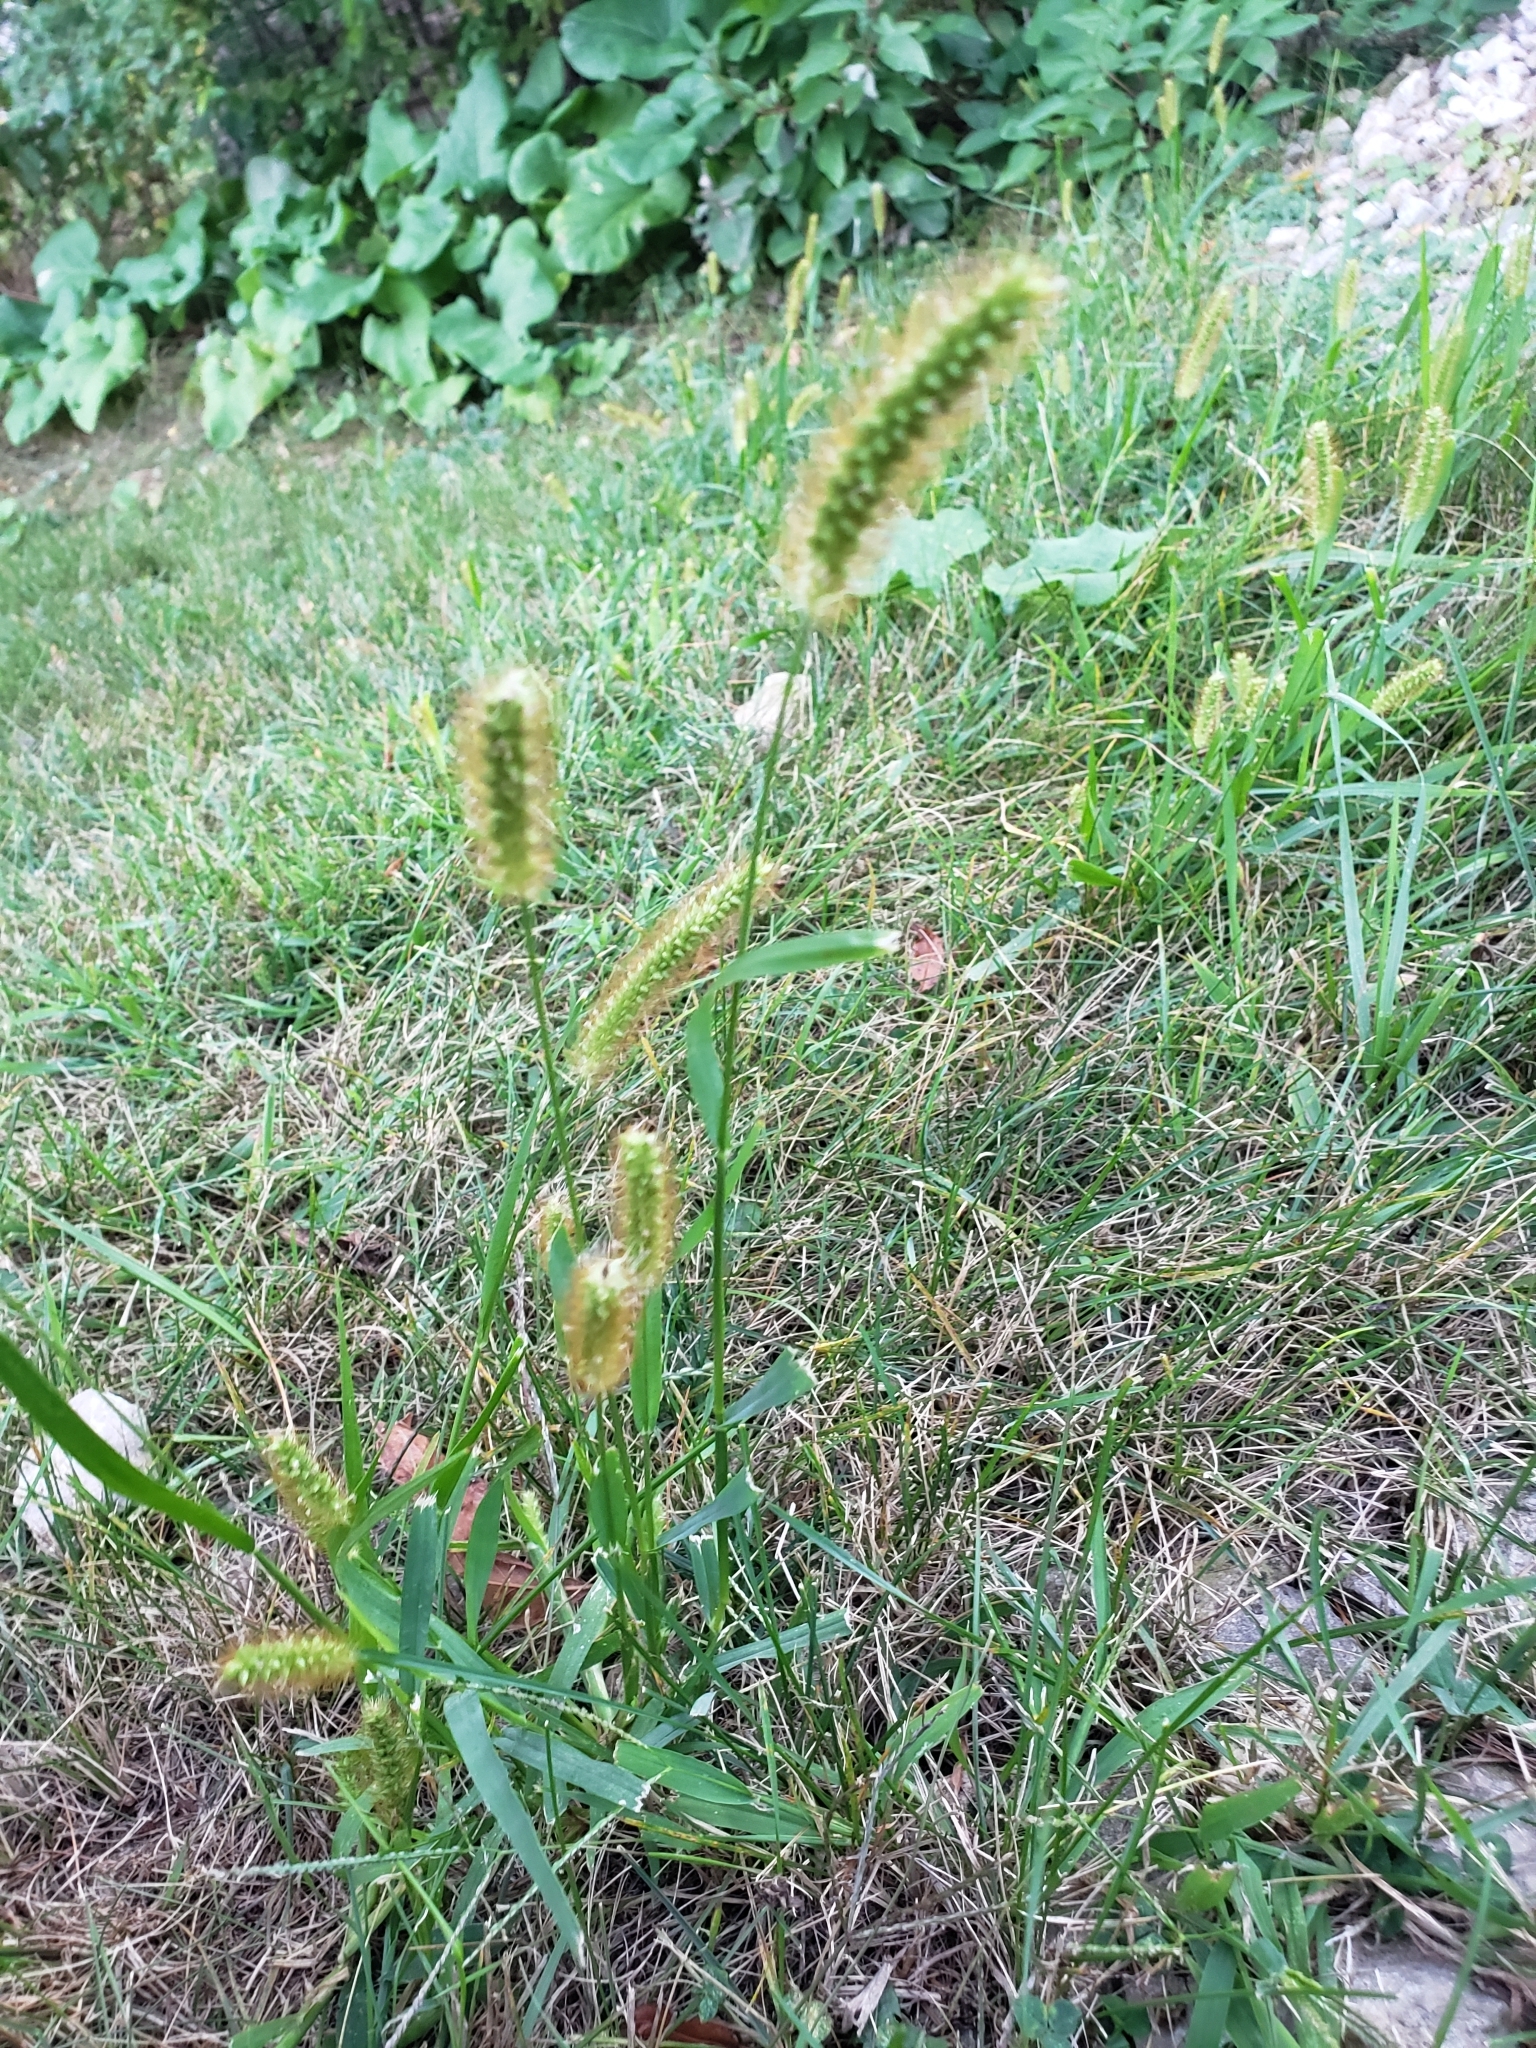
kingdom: Plantae
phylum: Tracheophyta
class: Liliopsida
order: Poales
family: Poaceae
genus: Setaria
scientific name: Setaria pumila
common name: Yellow bristle-grass
